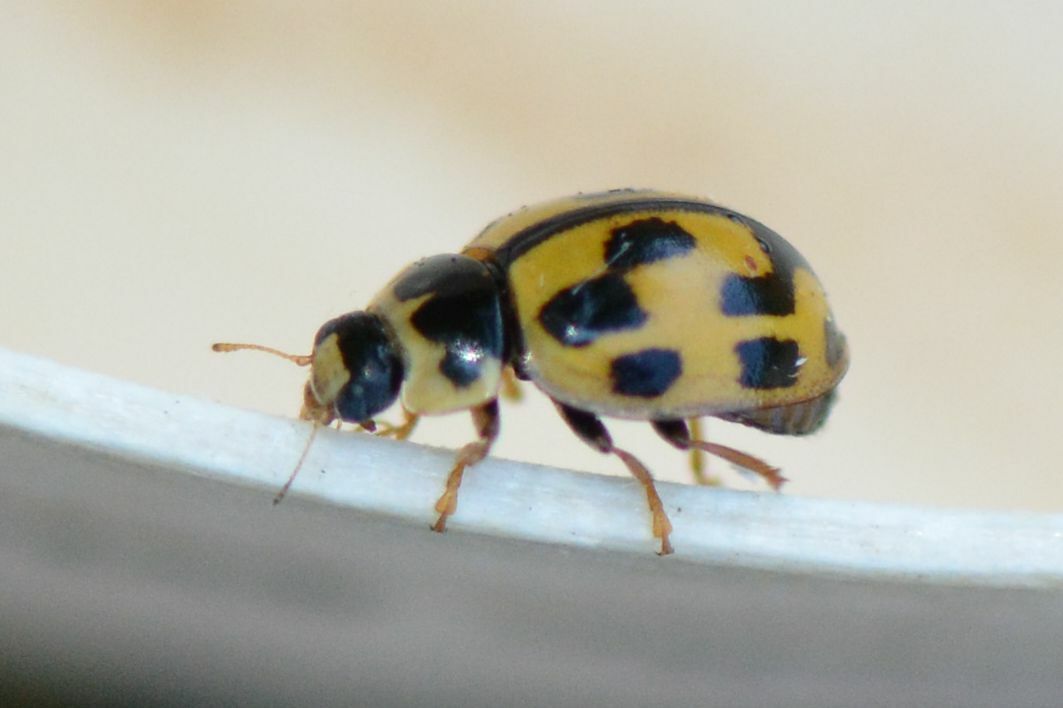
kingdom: Animalia
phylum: Arthropoda
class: Insecta
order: Coleoptera
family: Coccinellidae
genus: Propylaea
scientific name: Propylaea quatuordecimpunctata
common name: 14-spotted ladybird beetle
